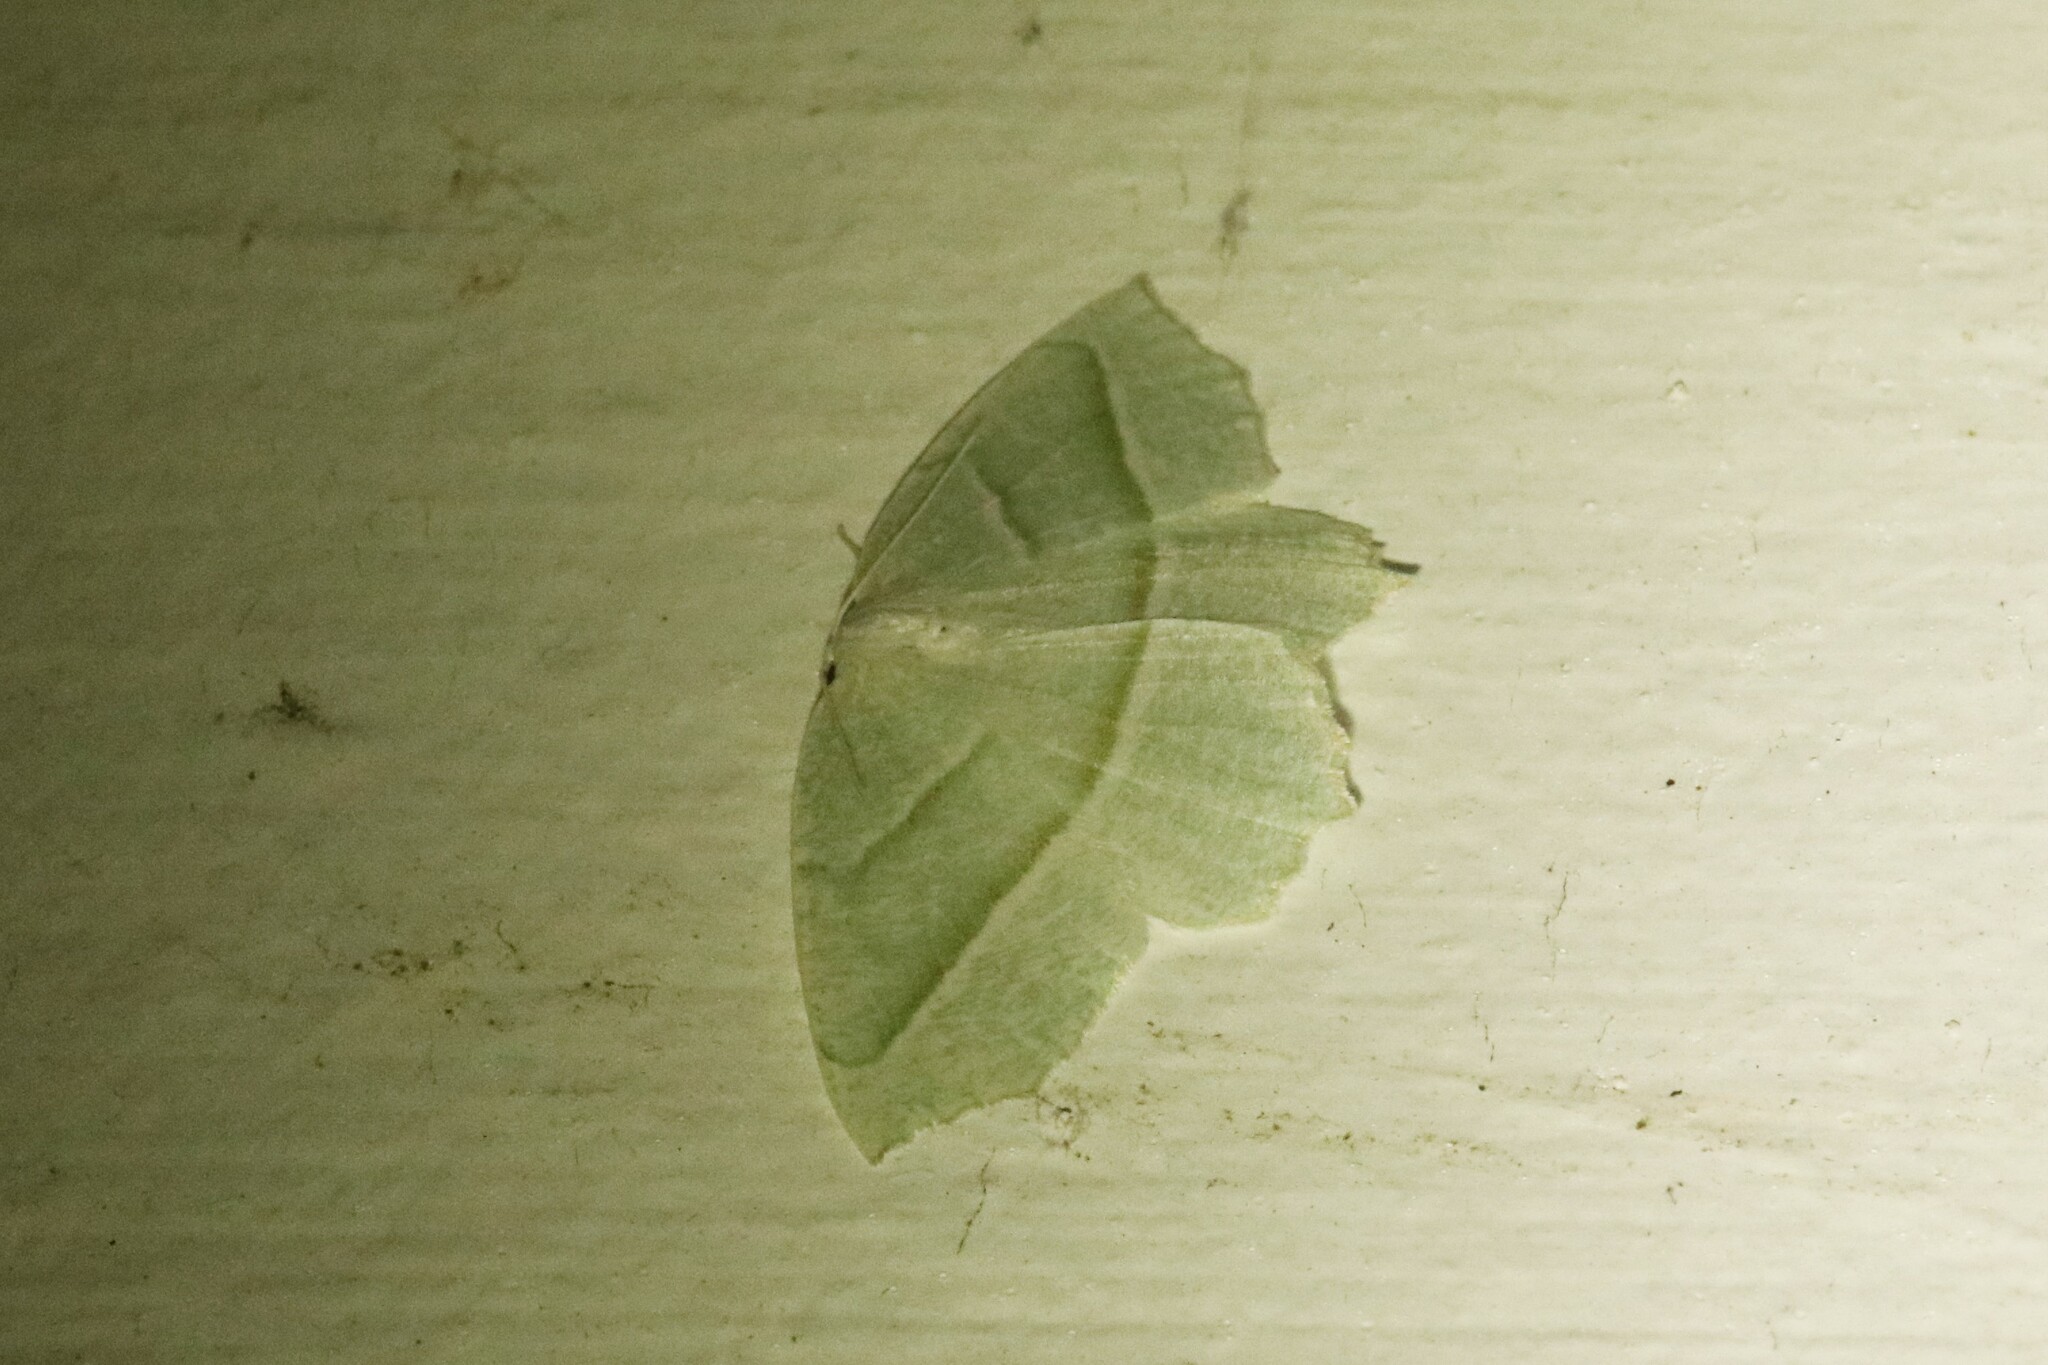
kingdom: Animalia
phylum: Arthropoda
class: Insecta
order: Lepidoptera
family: Geometridae
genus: Campaea
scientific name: Campaea perlata
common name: Fringed looper
